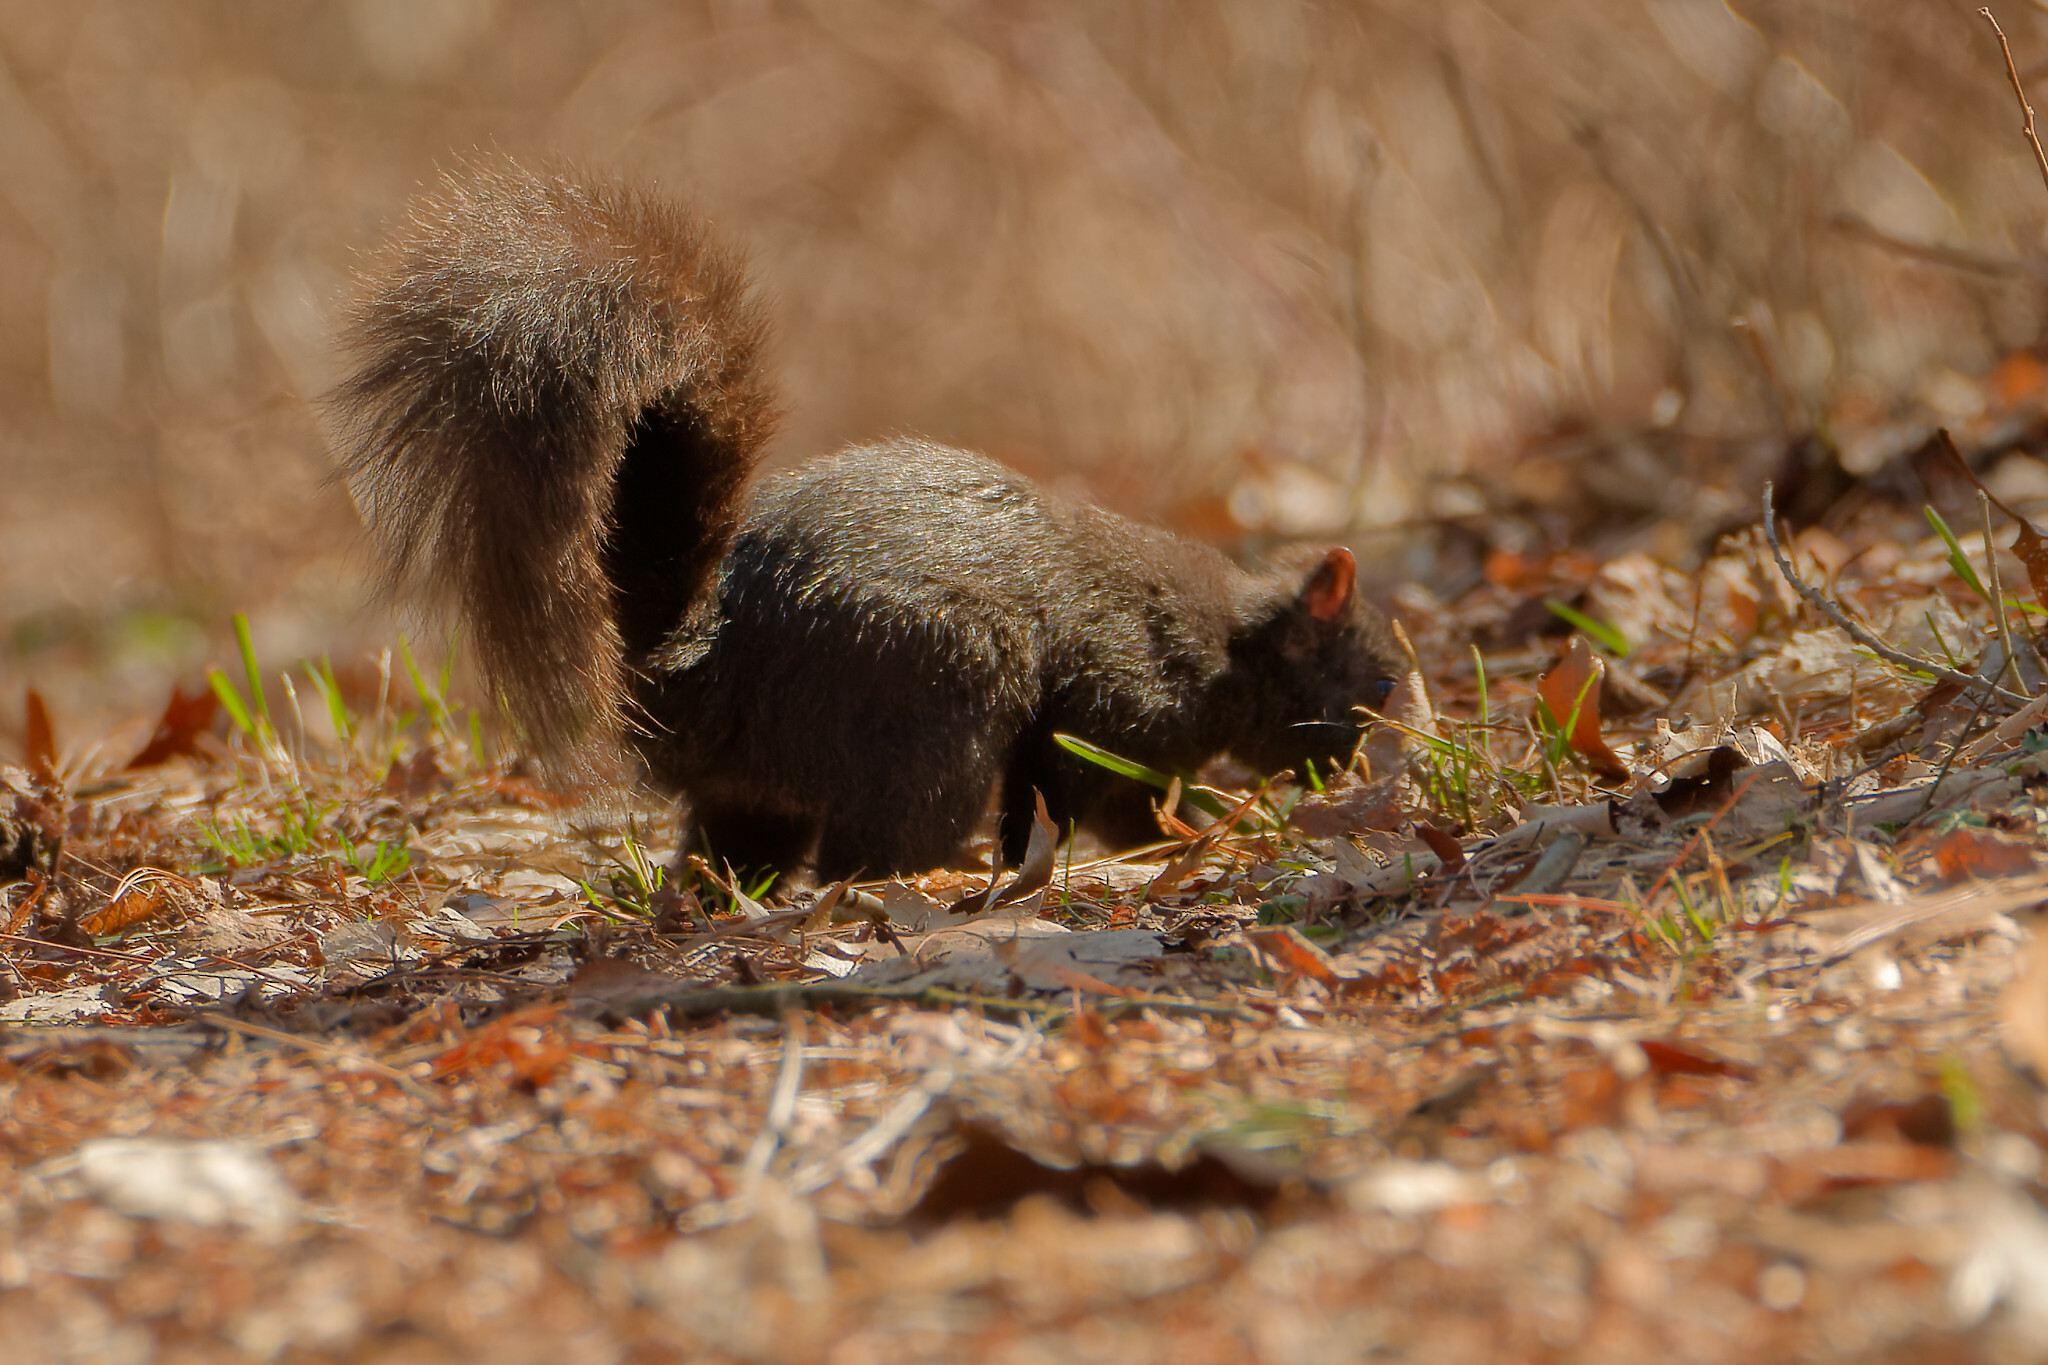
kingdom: Animalia
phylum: Chordata
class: Mammalia
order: Rodentia
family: Sciuridae
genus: Sciurus
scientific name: Sciurus carolinensis
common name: Eastern gray squirrel
